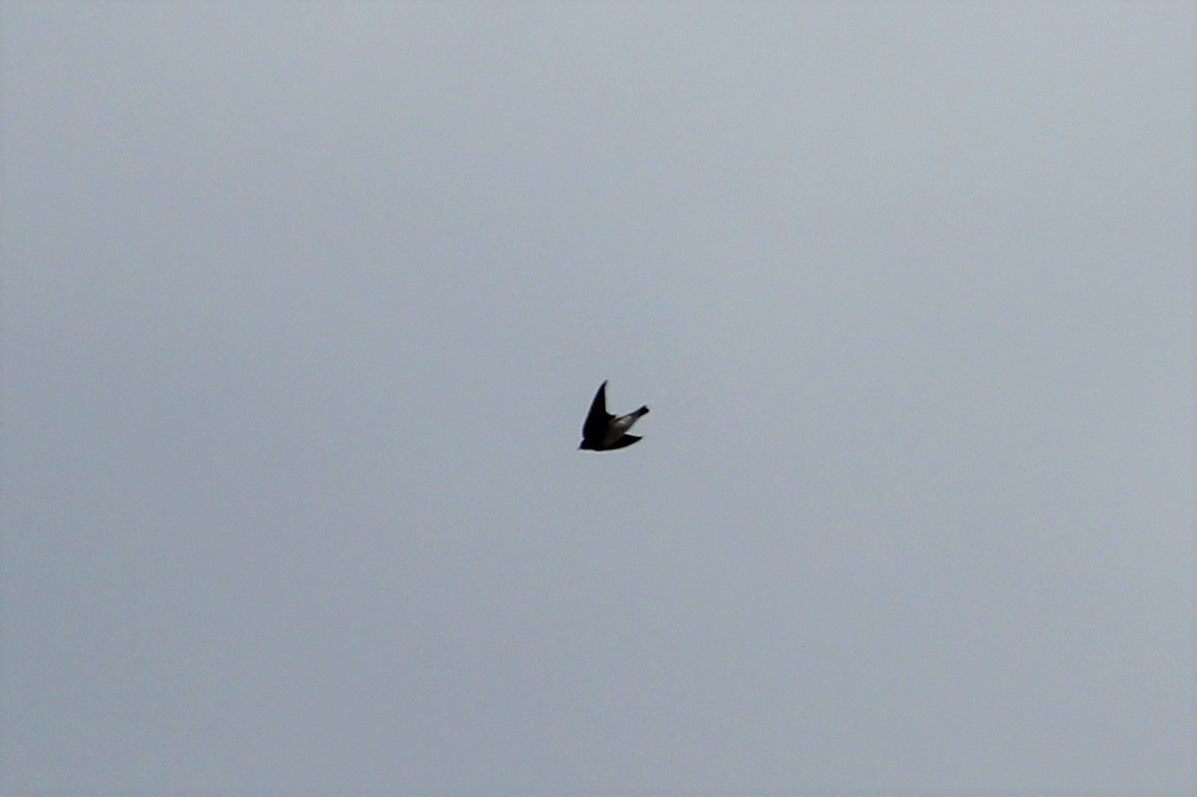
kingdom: Animalia
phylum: Chordata
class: Aves
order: Passeriformes
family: Hirundinidae
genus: Stelgidopteryx
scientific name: Stelgidopteryx serripennis
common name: Northern rough-winged swallow
